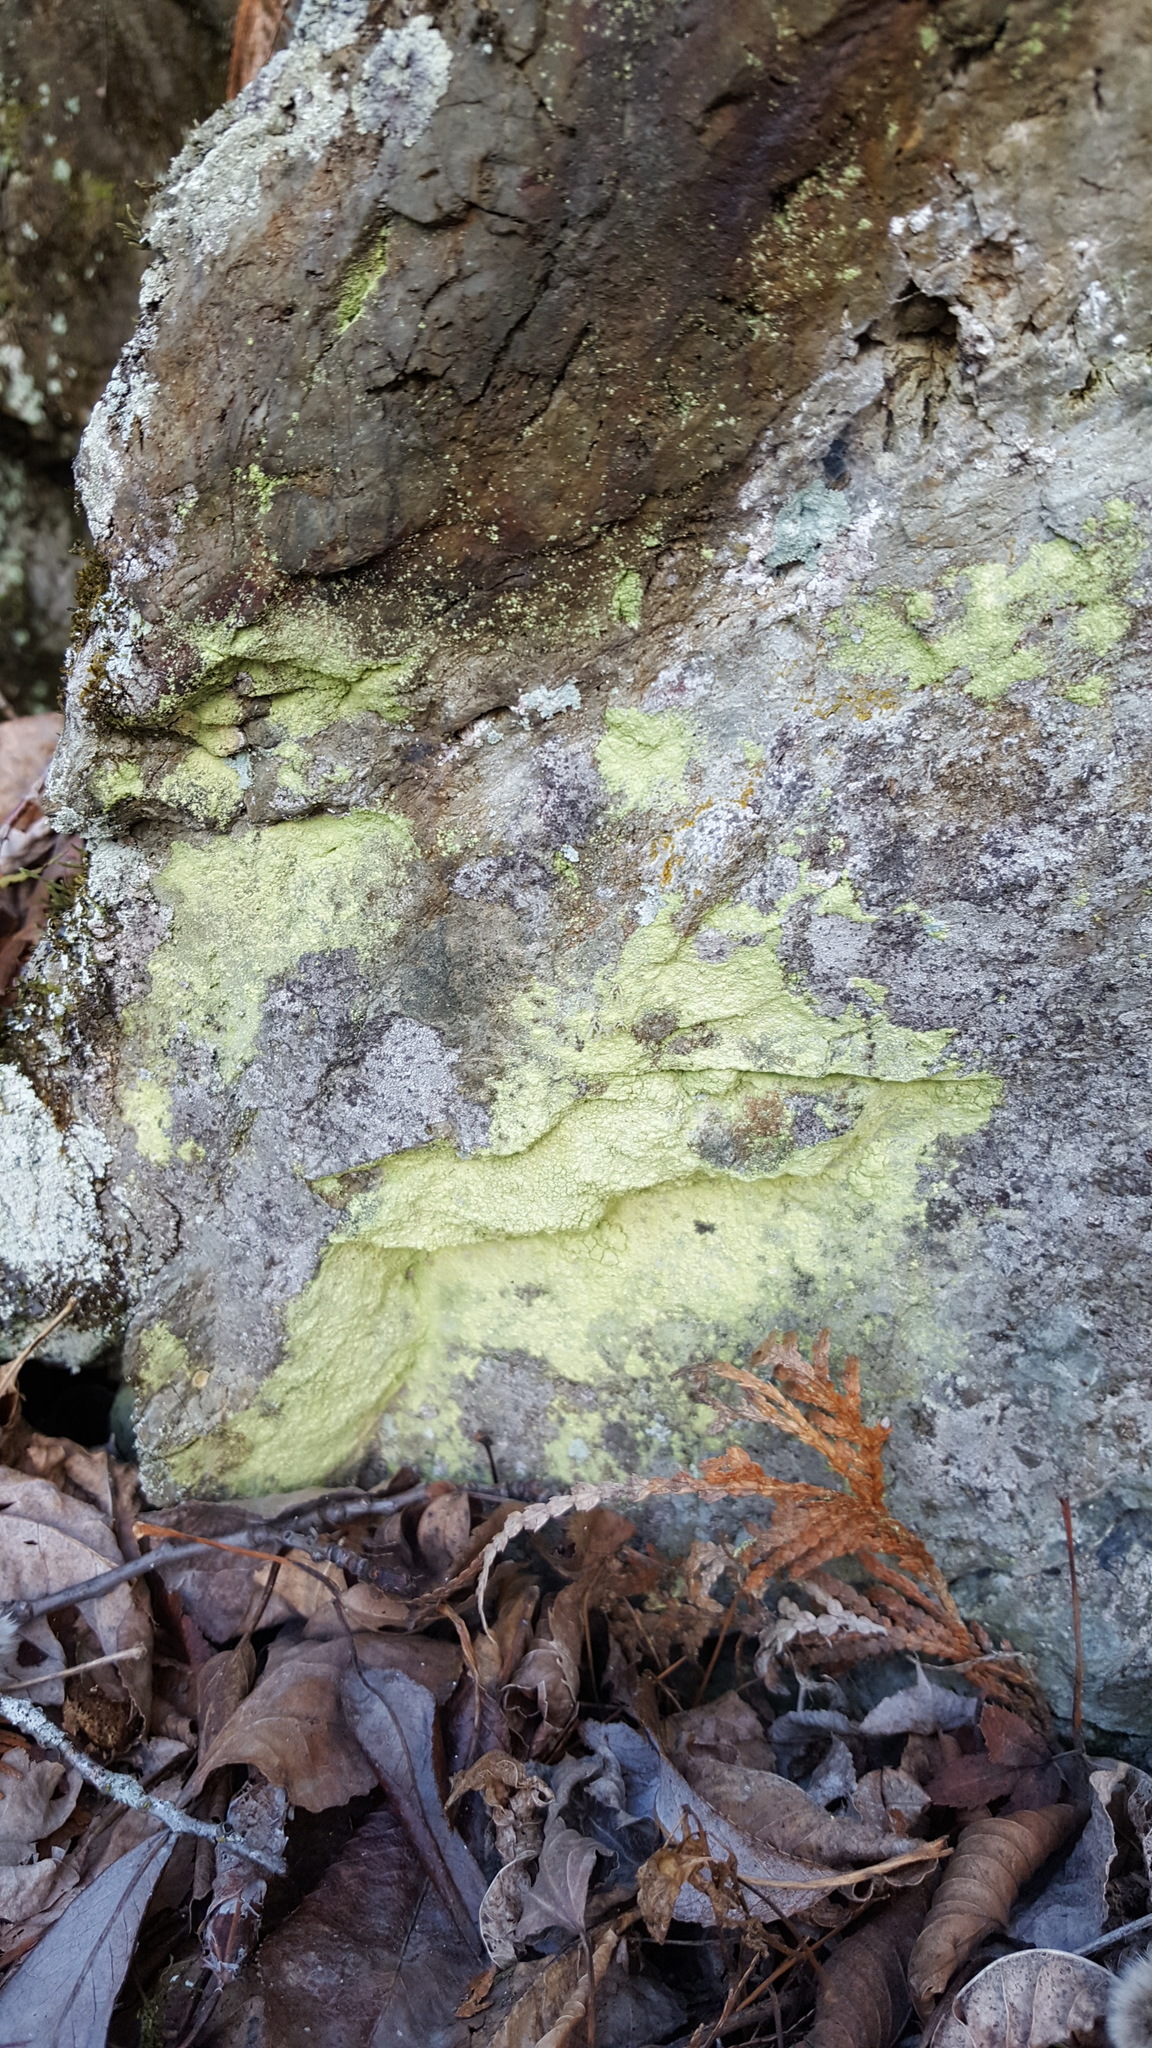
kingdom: Fungi
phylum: Ascomycota
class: Lecanoromycetes
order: Lecanorales
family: Psilolechiaceae
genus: Psilolechia
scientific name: Psilolechia lucida
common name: Sulphur dust lichen
